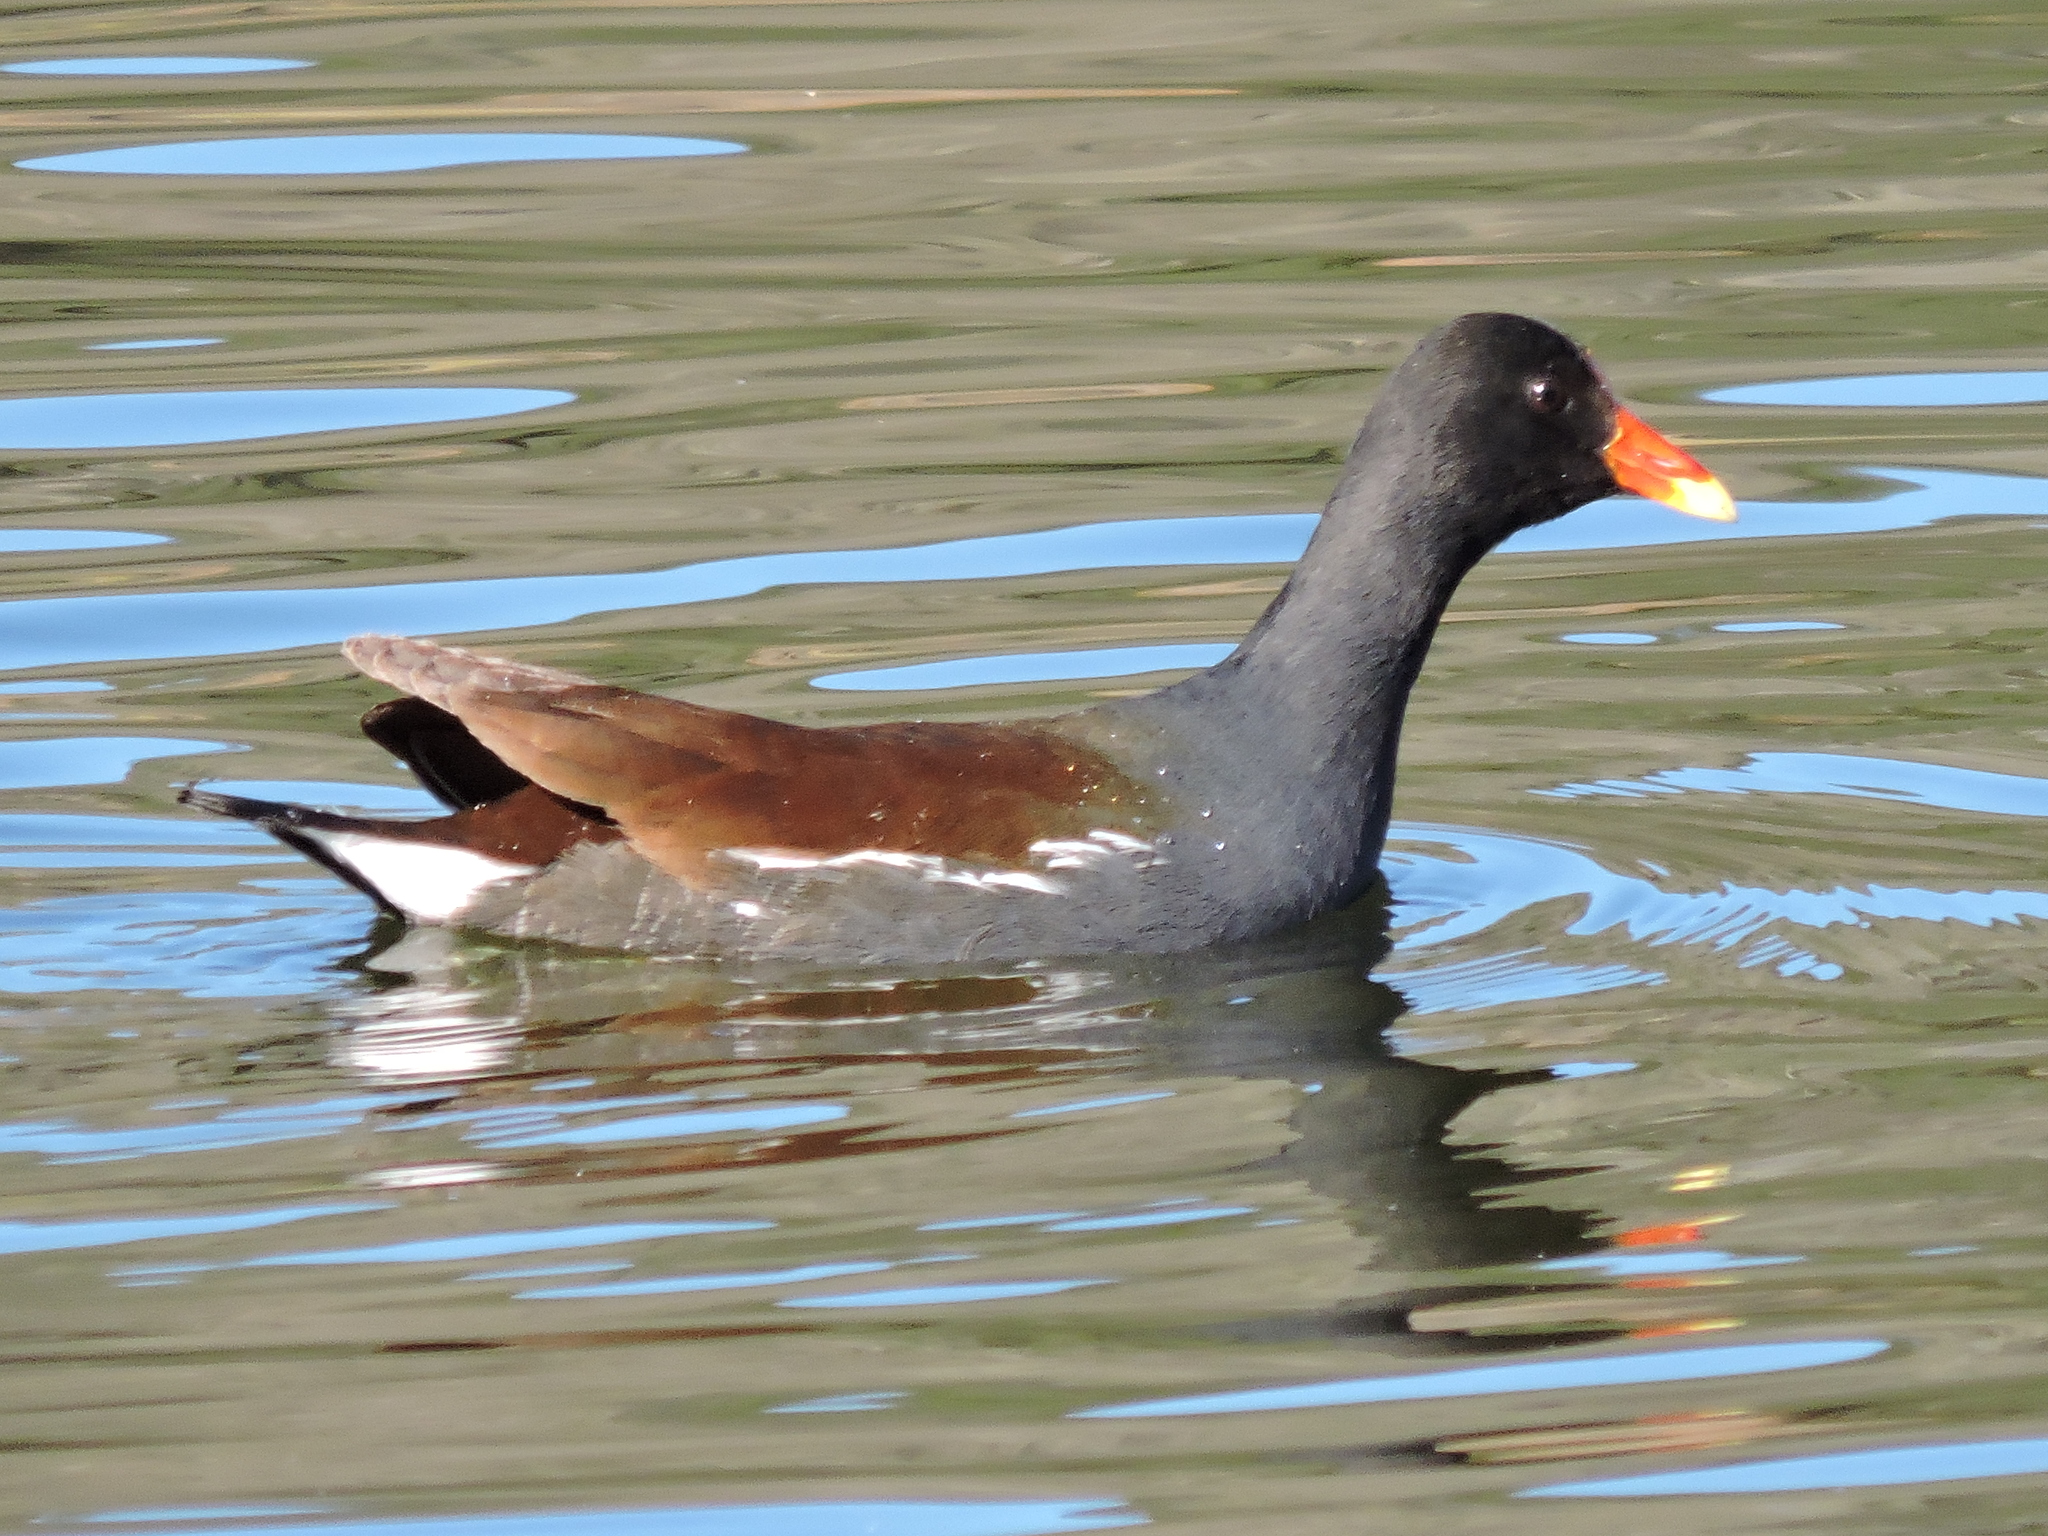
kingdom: Animalia
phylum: Chordata
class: Aves
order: Gruiformes
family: Rallidae
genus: Gallinula
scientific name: Gallinula chloropus
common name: Common moorhen
